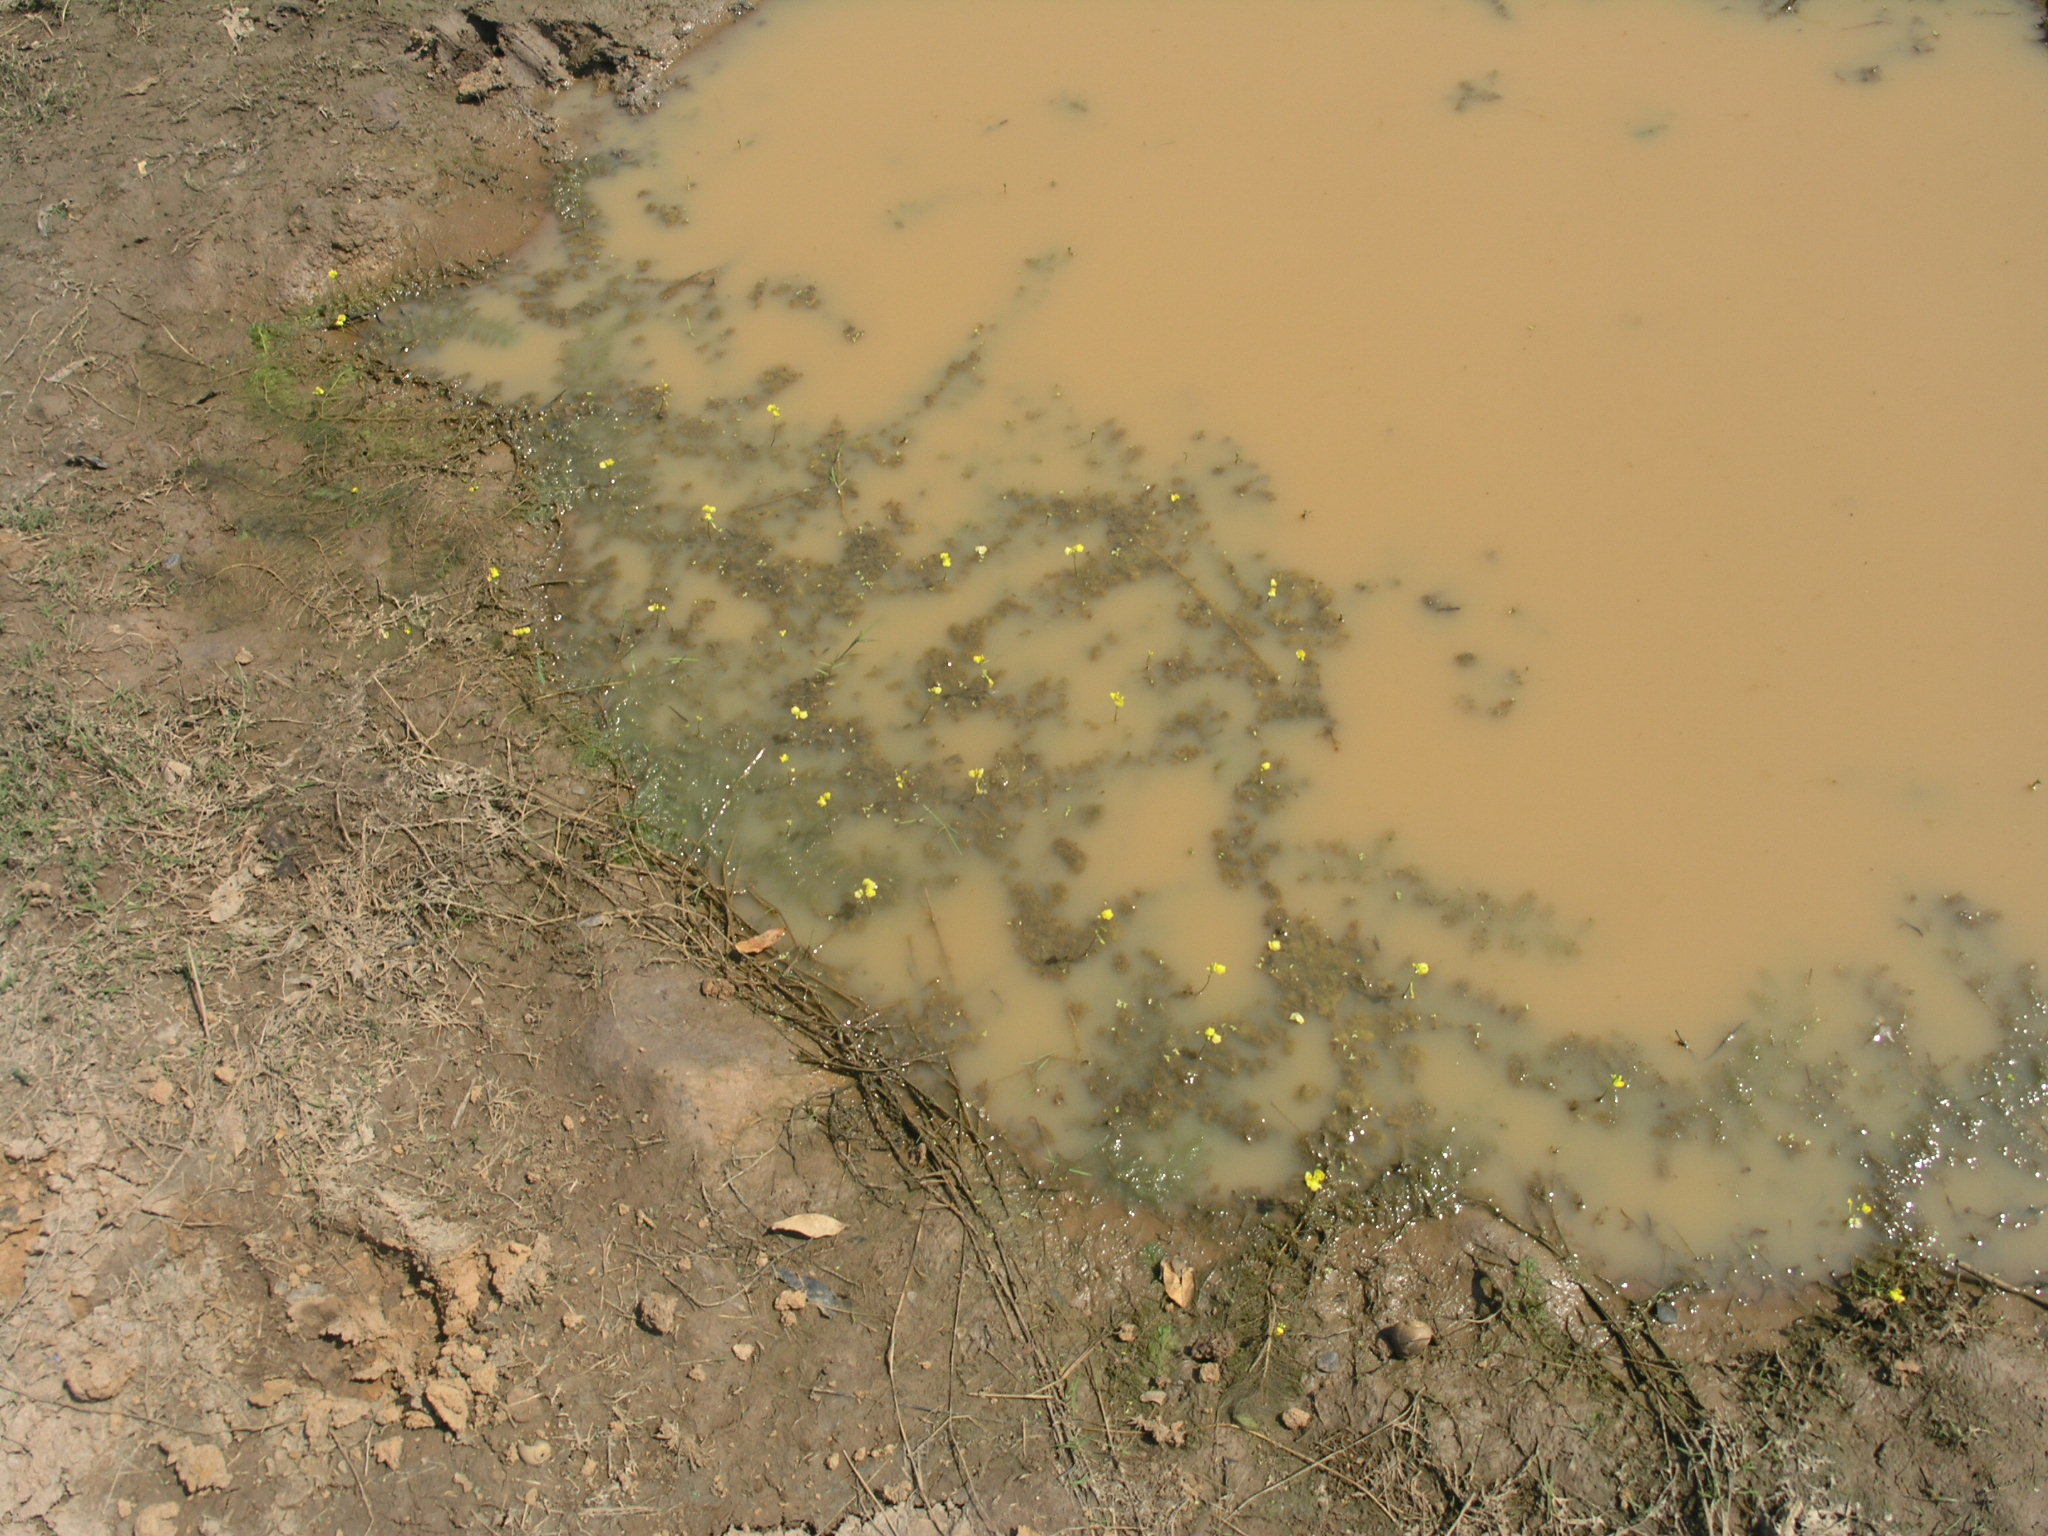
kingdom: Plantae
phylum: Tracheophyta
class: Magnoliopsida
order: Lamiales
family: Lentibulariaceae
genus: Utricularia
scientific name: Utricularia aurea
